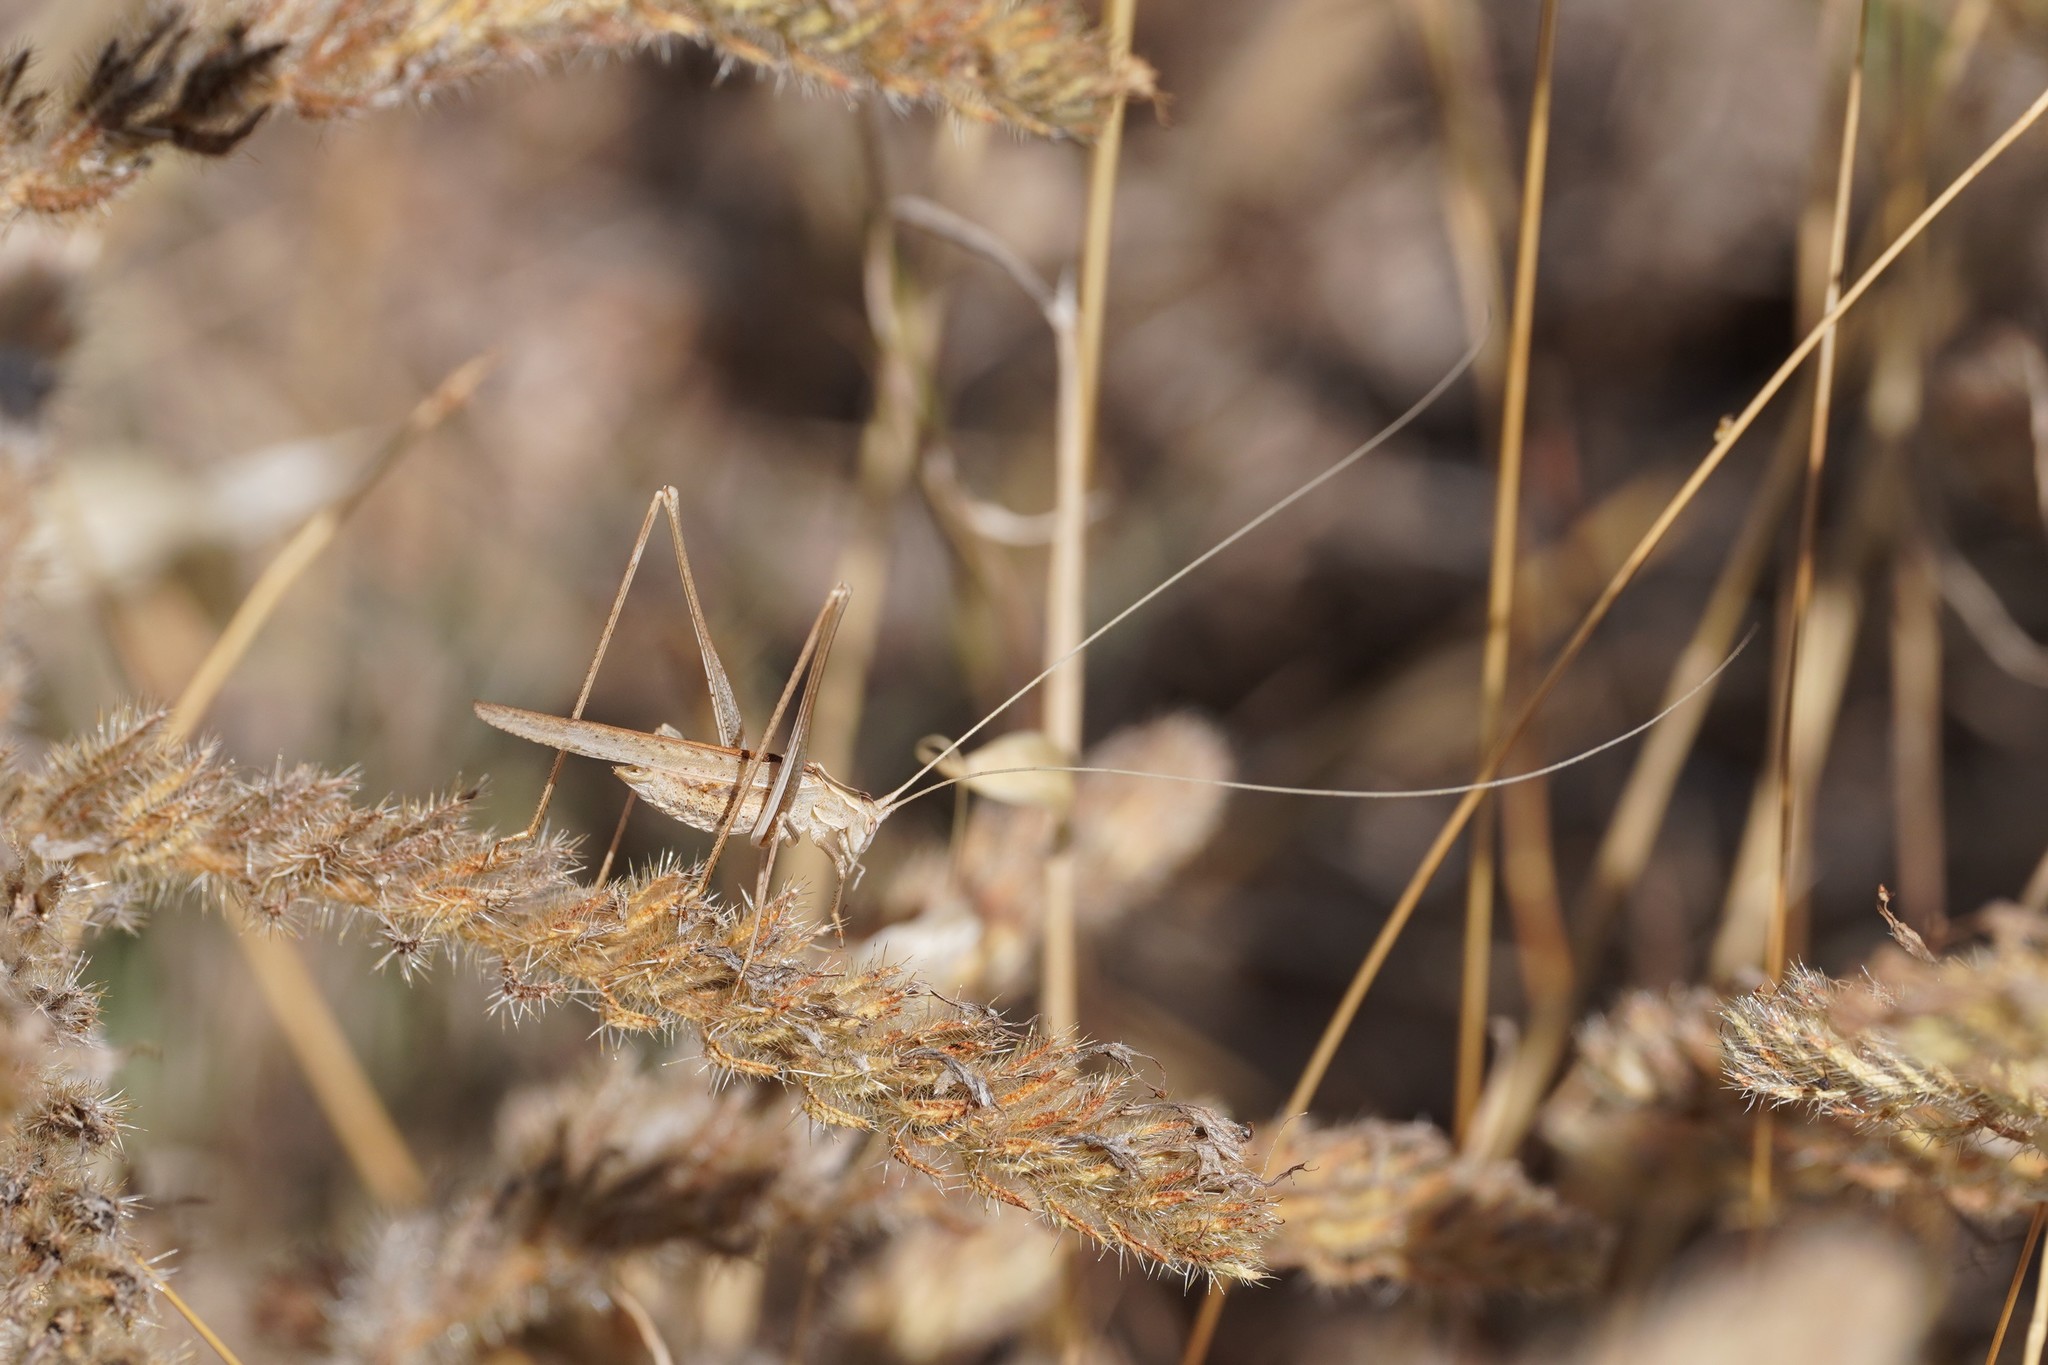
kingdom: Animalia
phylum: Arthropoda
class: Insecta
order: Orthoptera
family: Tettigoniidae
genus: Tylopsis
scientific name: Tylopsis lilifolia
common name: Lily bush-cricket
